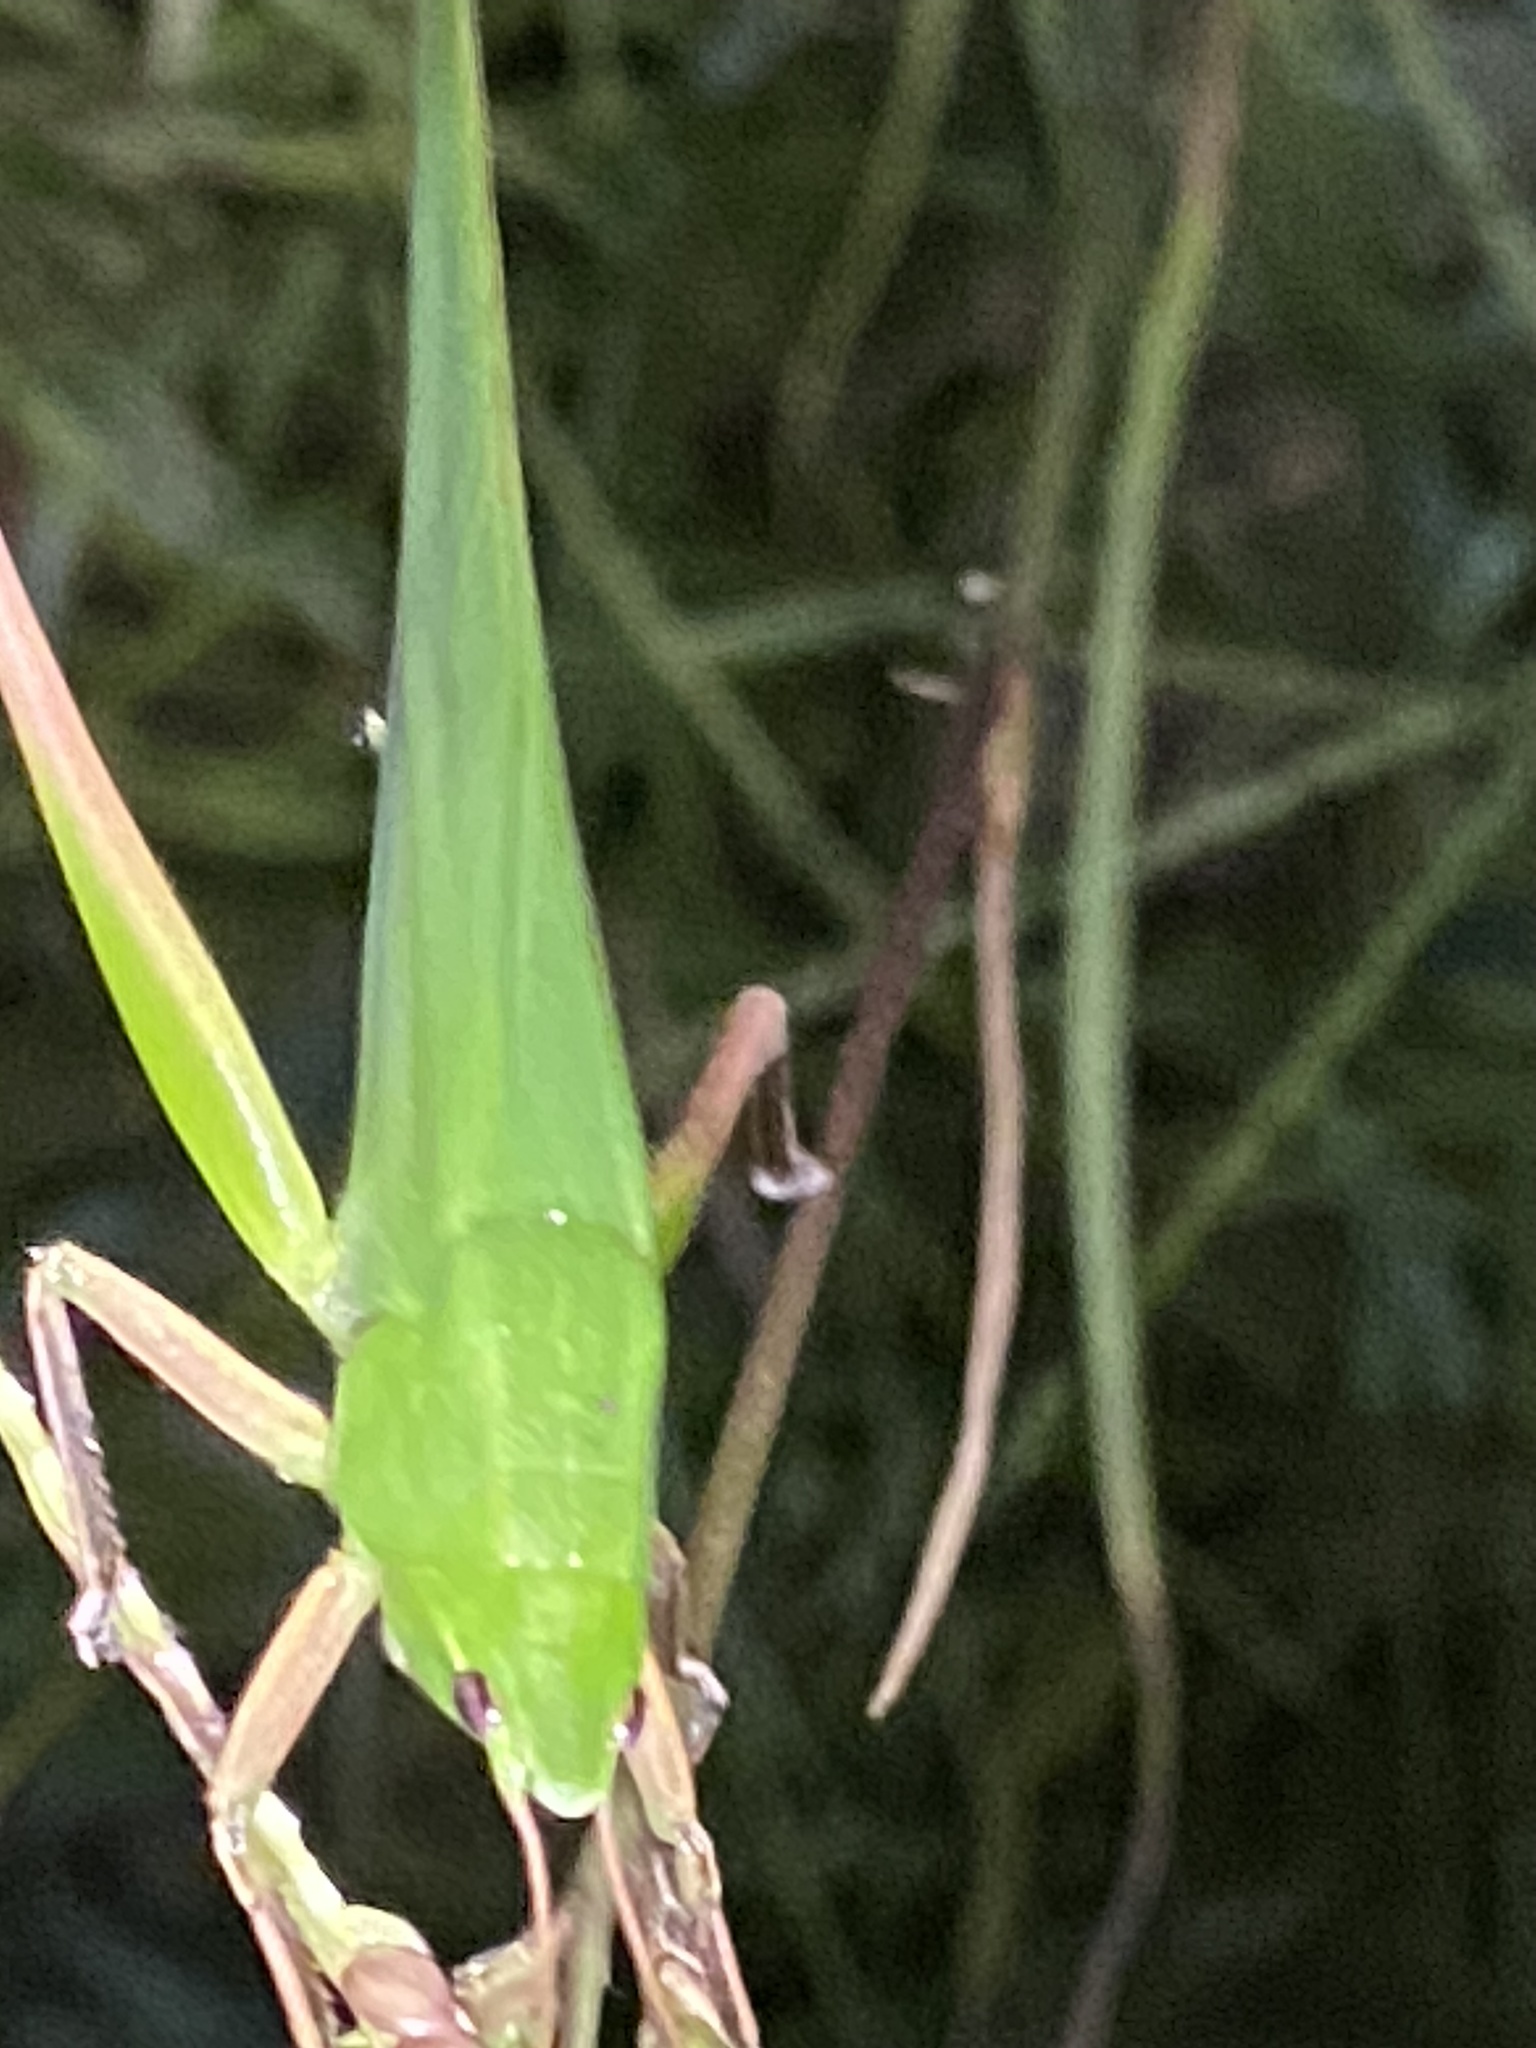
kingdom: Animalia
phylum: Arthropoda
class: Insecta
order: Orthoptera
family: Tettigoniidae
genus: Neoconocephalus
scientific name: Neoconocephalus triops
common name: Broad-tipped conehead
